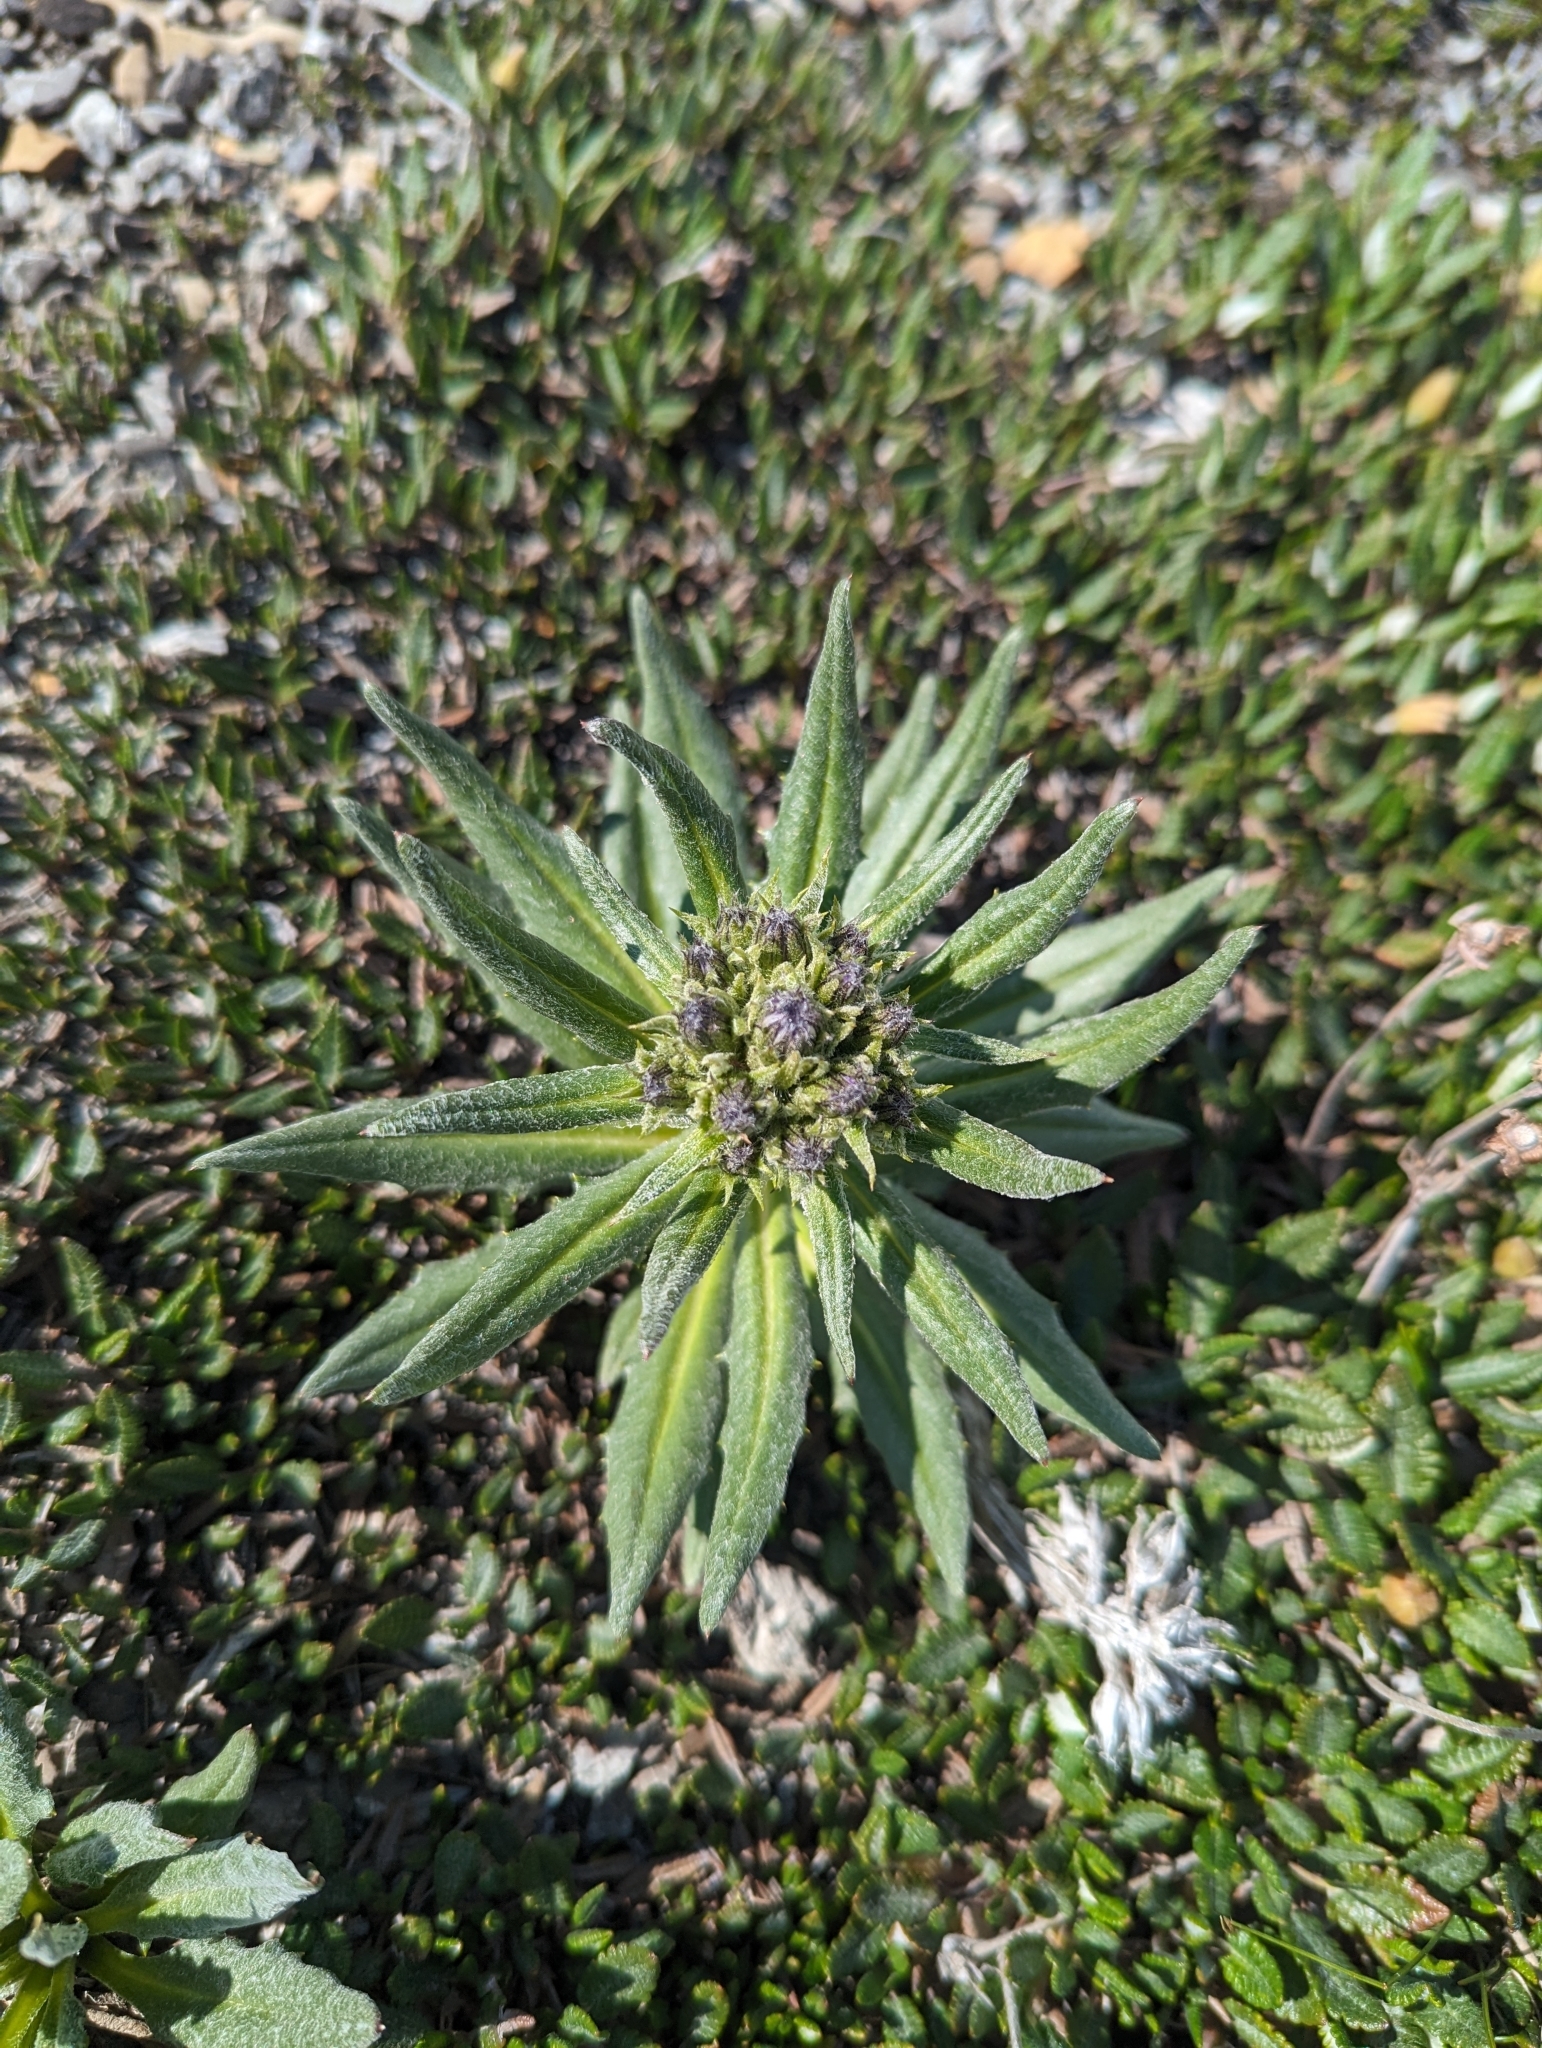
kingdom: Plantae
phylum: Tracheophyta
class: Magnoliopsida
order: Asterales
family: Asteraceae
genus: Saussurea
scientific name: Saussurea nuda
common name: Chaffless saw-wort
